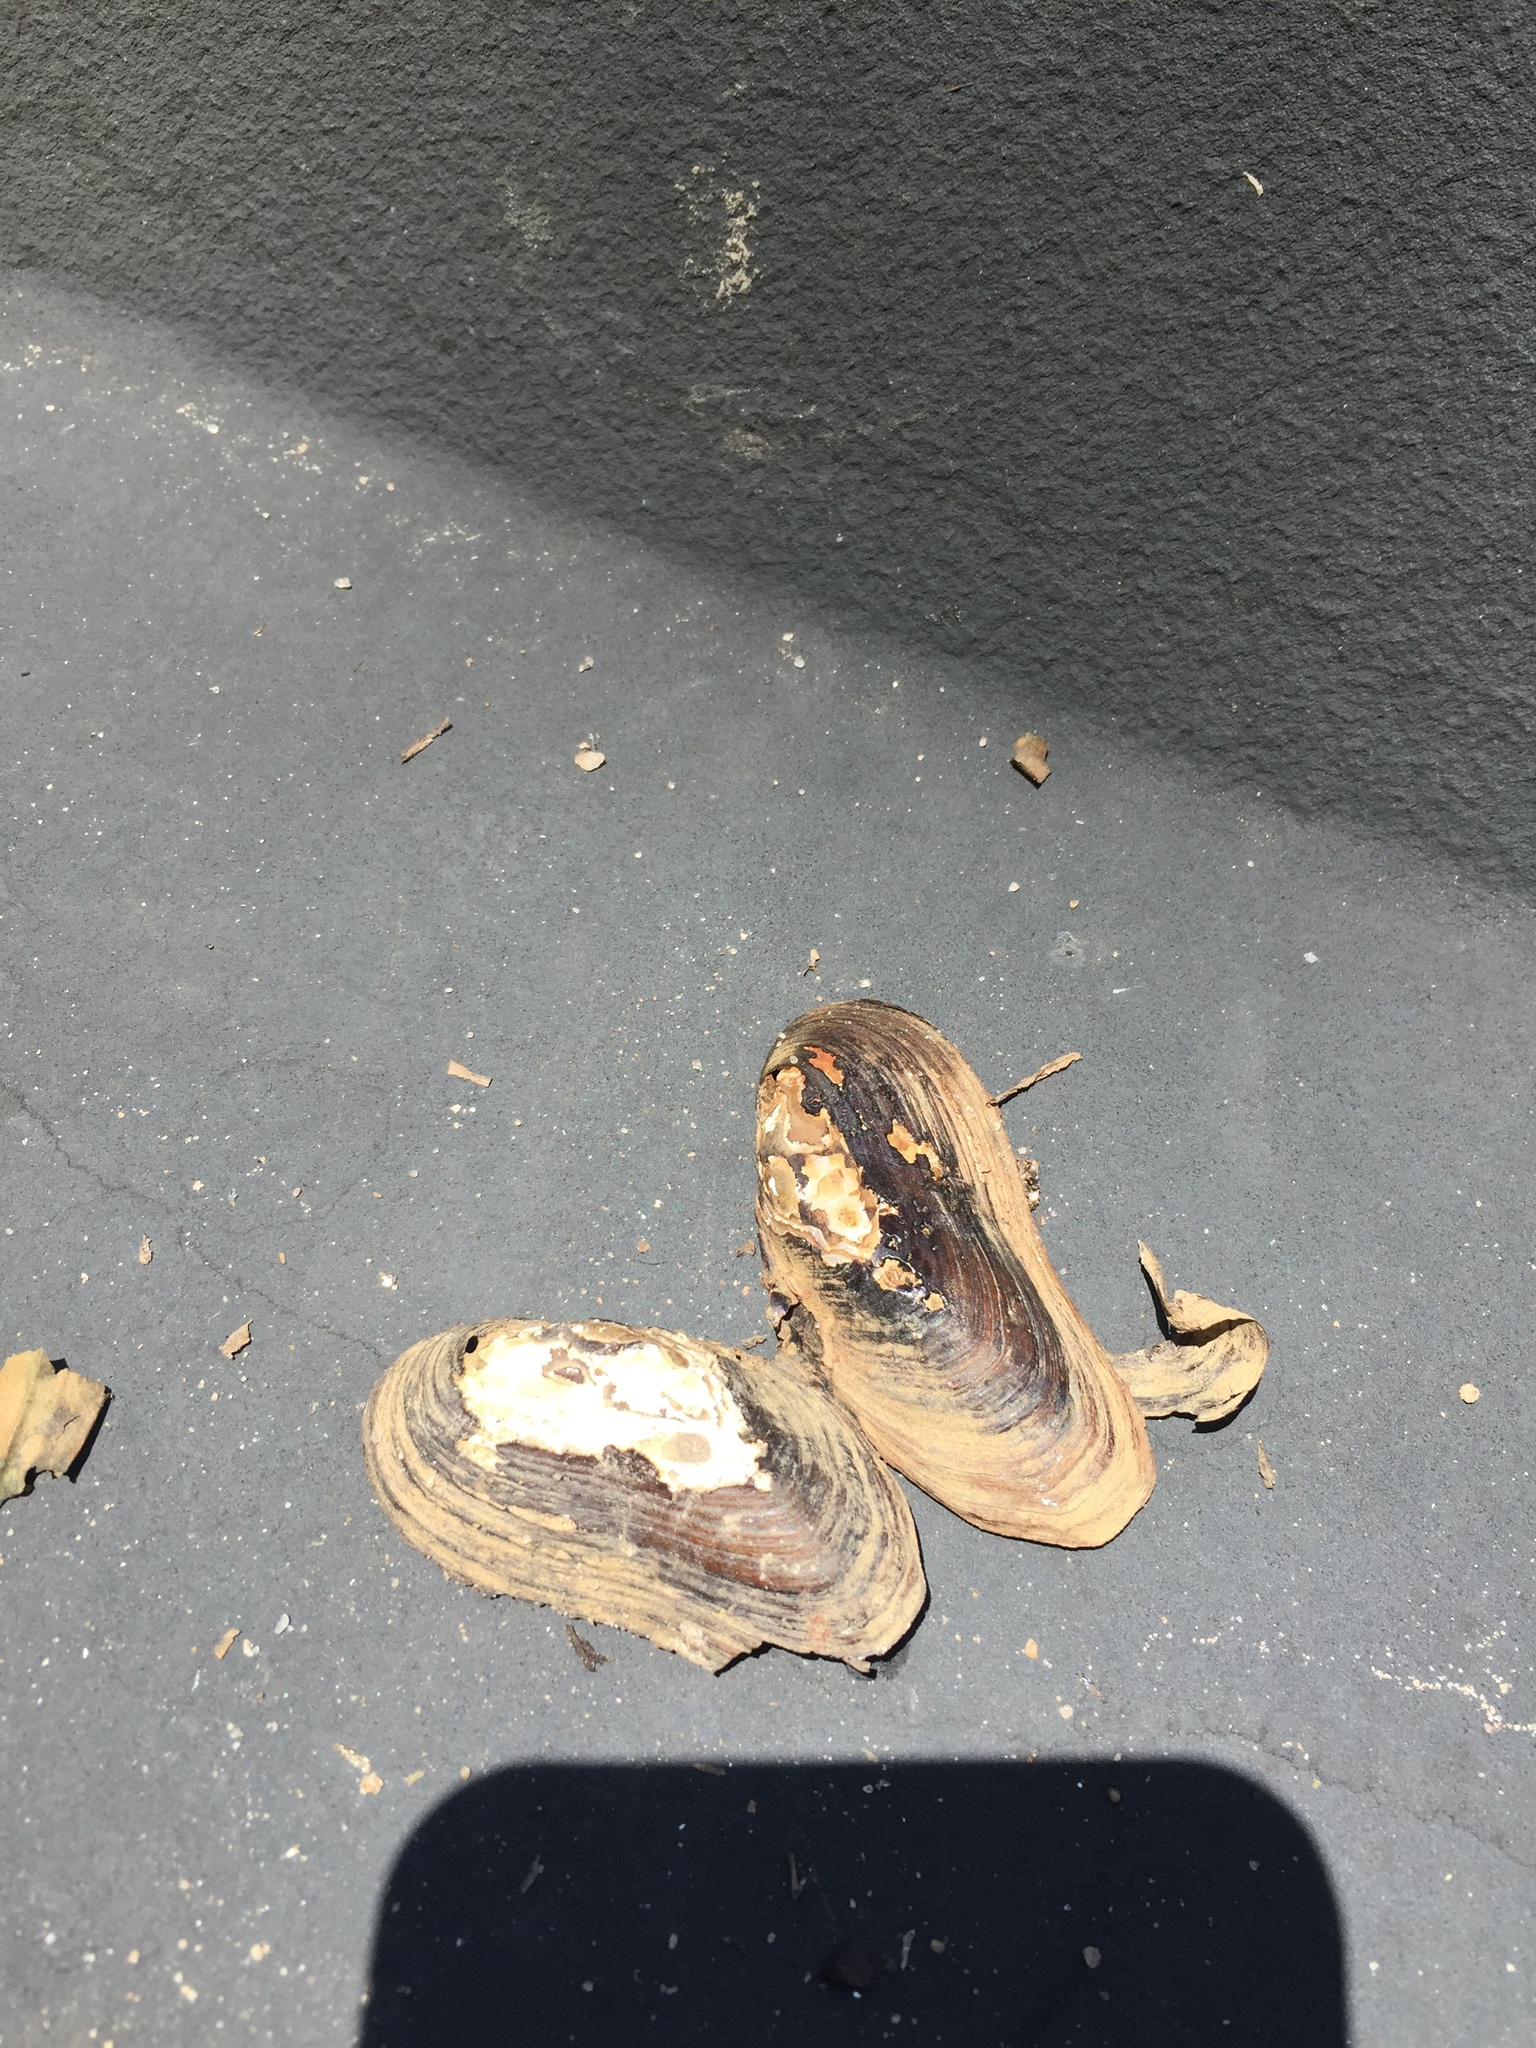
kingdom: Animalia
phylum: Mollusca
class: Bivalvia
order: Unionida
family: Unionidae
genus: Elliptio
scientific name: Elliptio arctata
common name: Delicate spike
